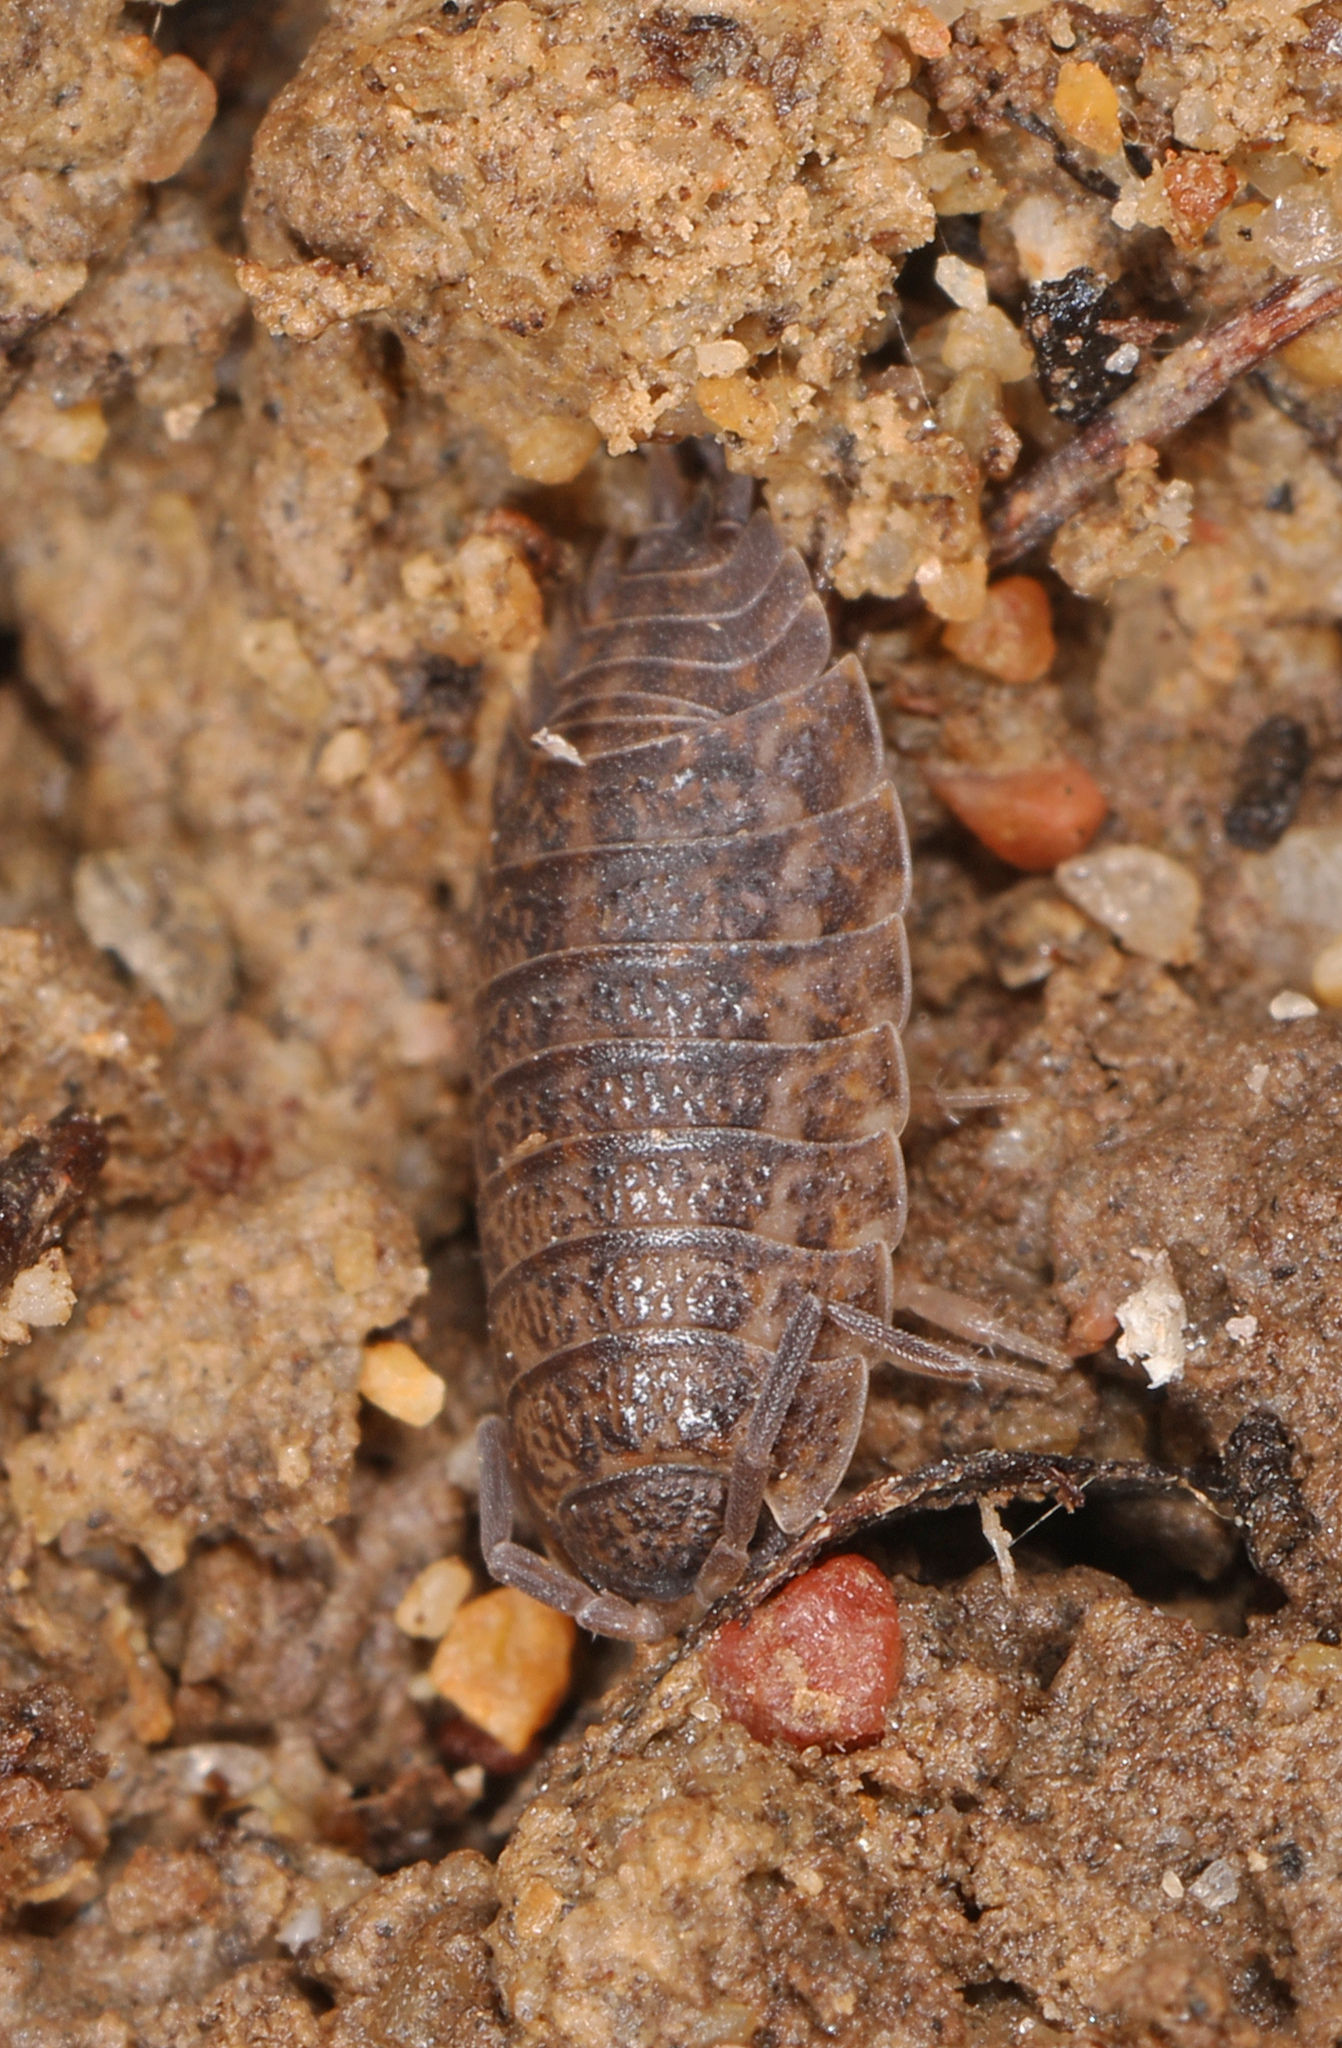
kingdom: Animalia
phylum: Arthropoda
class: Malacostraca
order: Isopoda
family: Trachelipodidae
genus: Trachelipus
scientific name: Trachelipus rathkii
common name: Isopod
